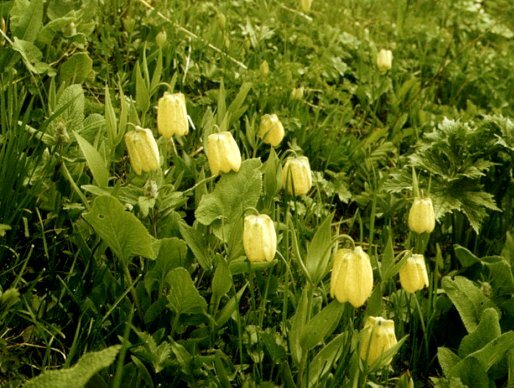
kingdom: Plantae
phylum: Tracheophyta
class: Liliopsida
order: Liliales
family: Liliaceae
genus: Fritillaria
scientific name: Fritillaria pallidiflora
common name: Sinkiang fritillaria
